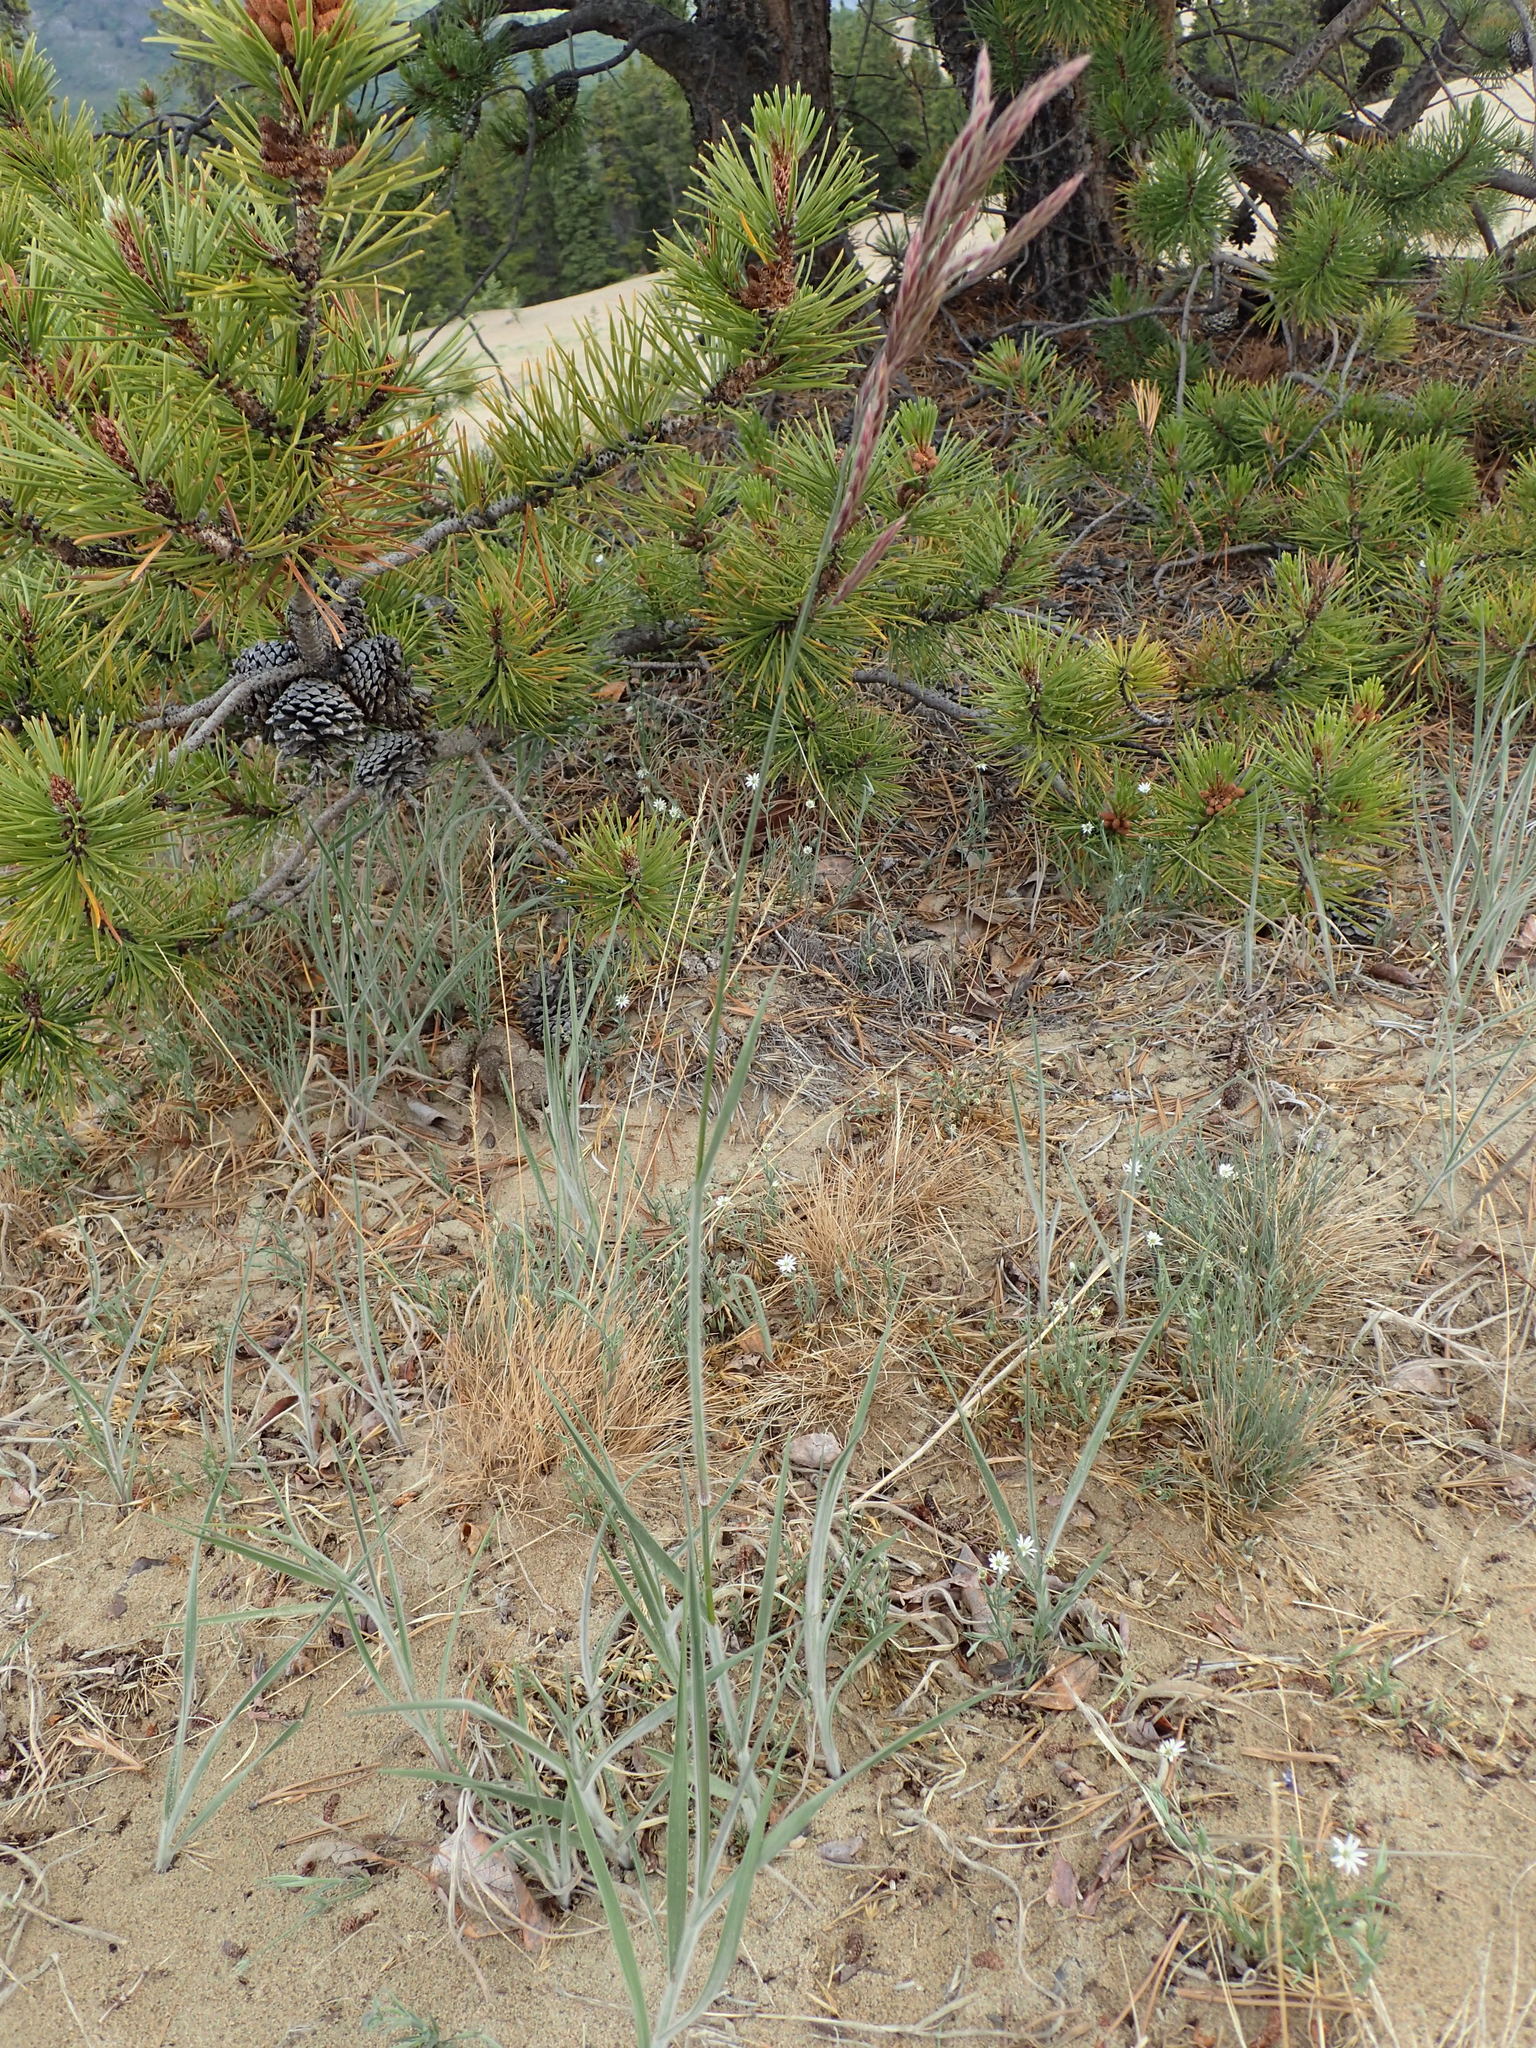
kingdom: Plantae
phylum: Tracheophyta
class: Liliopsida
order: Poales
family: Poaceae
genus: Bromus
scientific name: Bromus pumpellianus
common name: Pumpelly's brome
